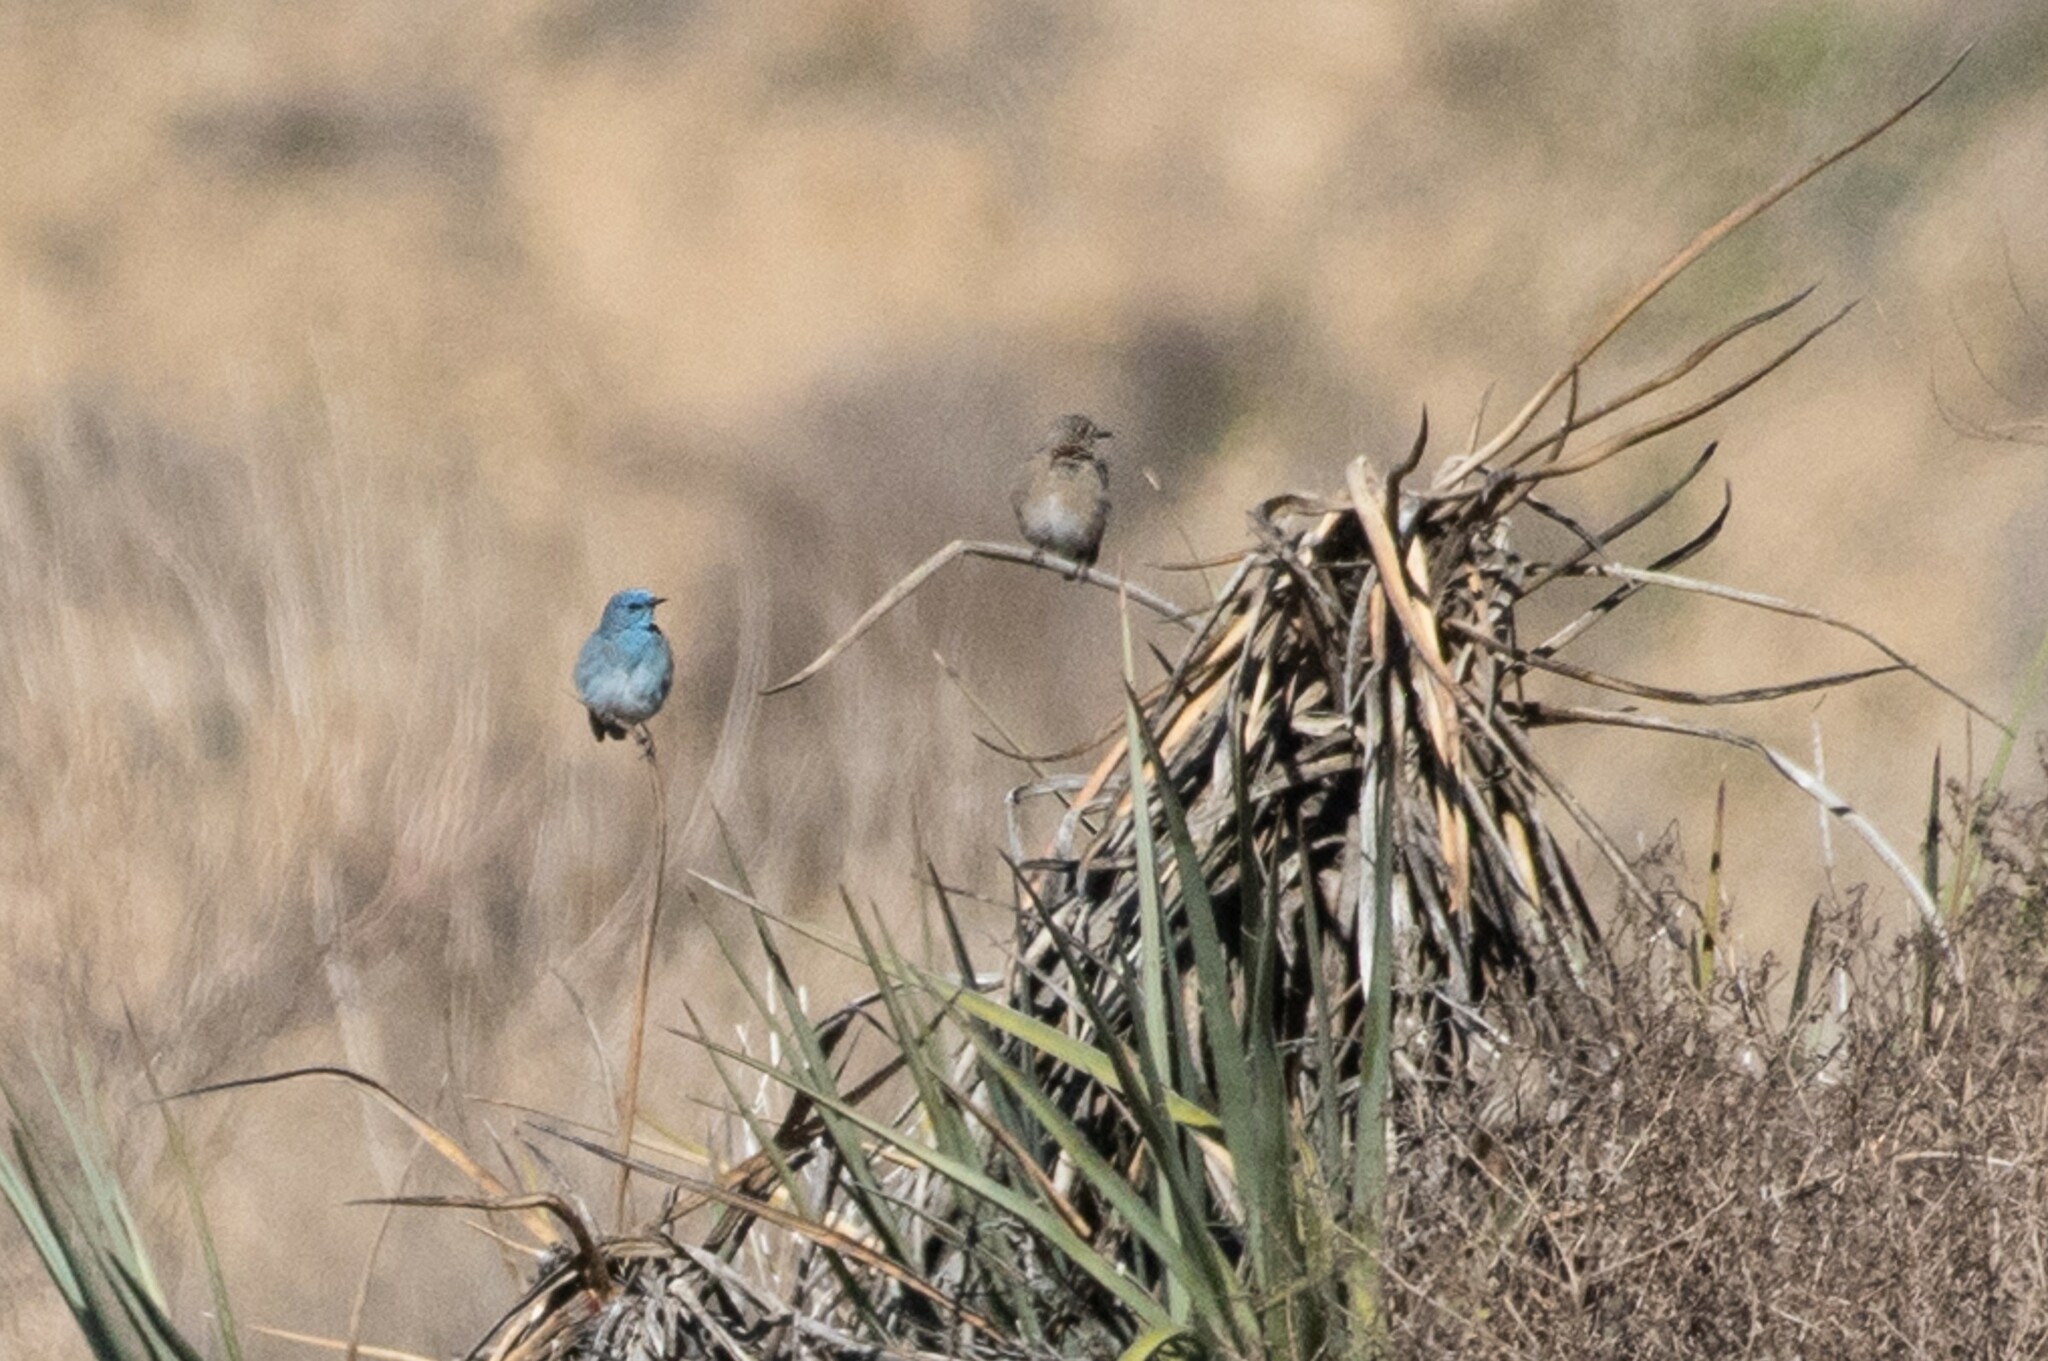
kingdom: Animalia
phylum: Chordata
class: Aves
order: Passeriformes
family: Turdidae
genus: Sialia
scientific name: Sialia currucoides
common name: Mountain bluebird
